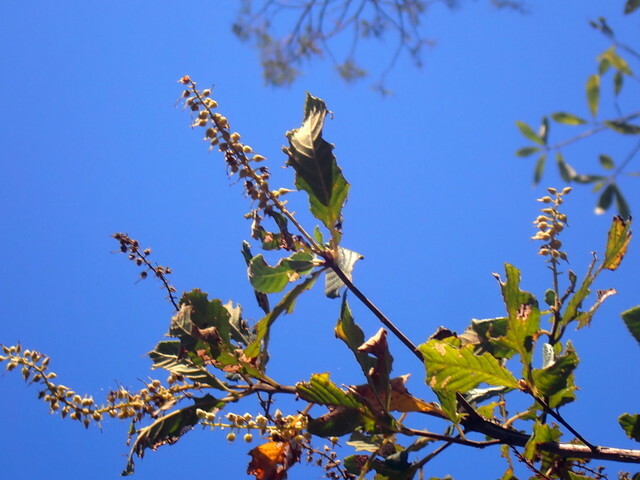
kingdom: Plantae
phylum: Tracheophyta
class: Magnoliopsida
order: Ericales
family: Clethraceae
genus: Clethra
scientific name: Clethra alnifolia
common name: Sweet pepperbush
